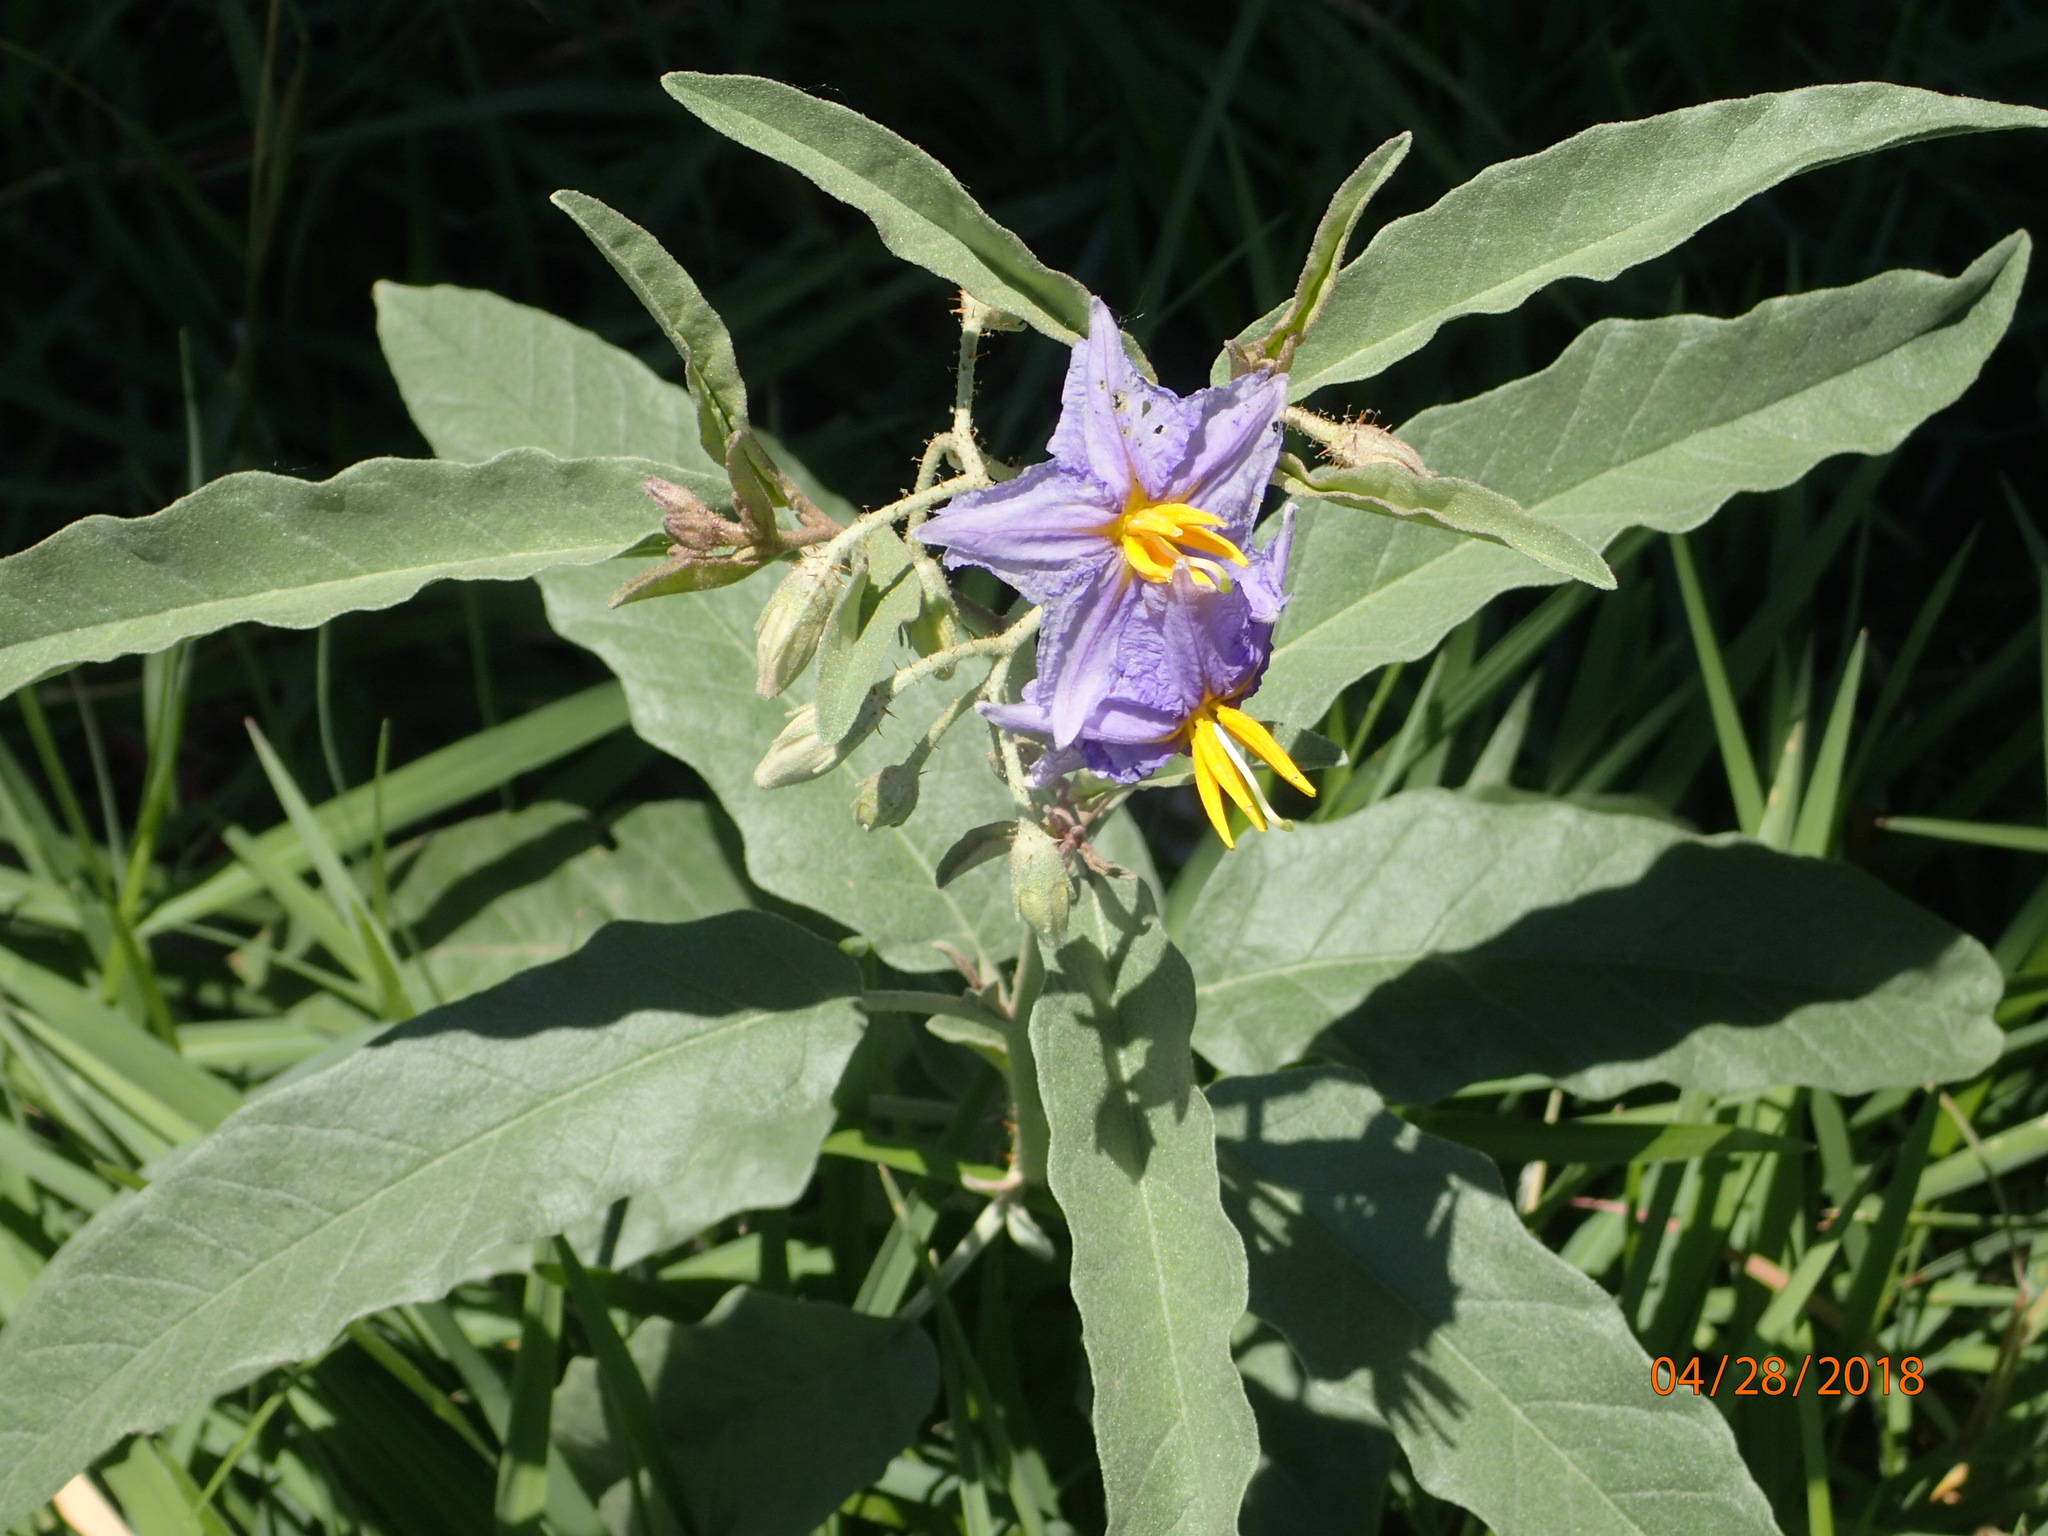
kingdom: Plantae
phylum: Tracheophyta
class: Magnoliopsida
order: Solanales
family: Solanaceae
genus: Solanum
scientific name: Solanum elaeagnifolium
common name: Silverleaf nightshade
